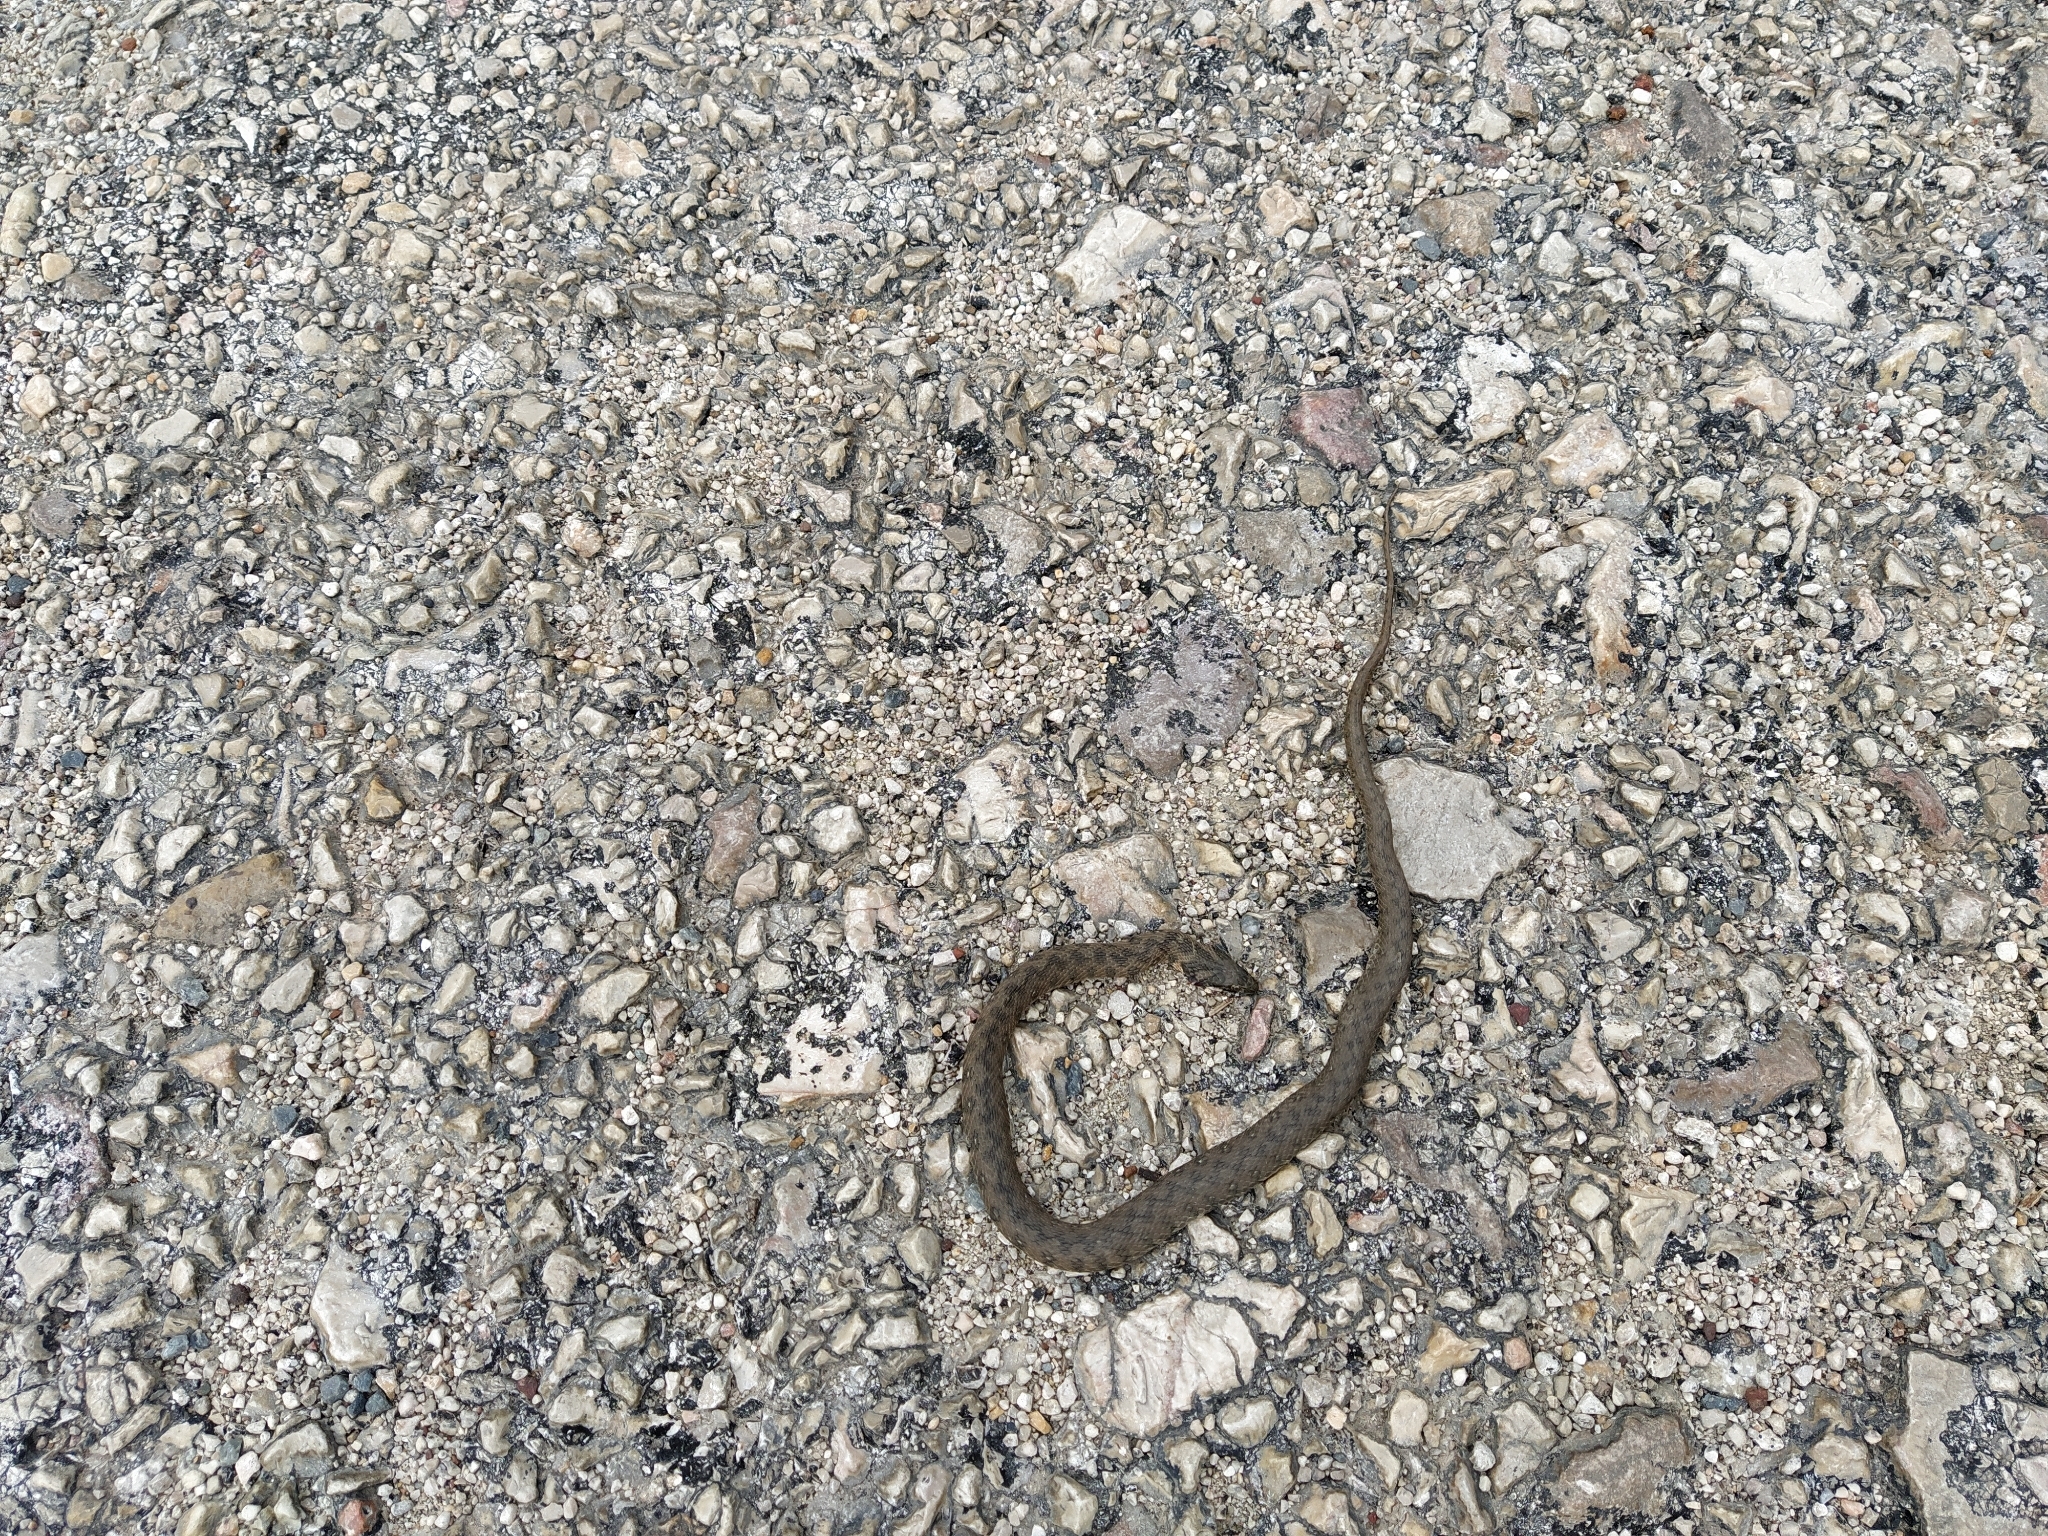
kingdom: Animalia
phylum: Chordata
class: Squamata
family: Colubridae
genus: Natrix
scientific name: Natrix maura
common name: Viperine water snake
